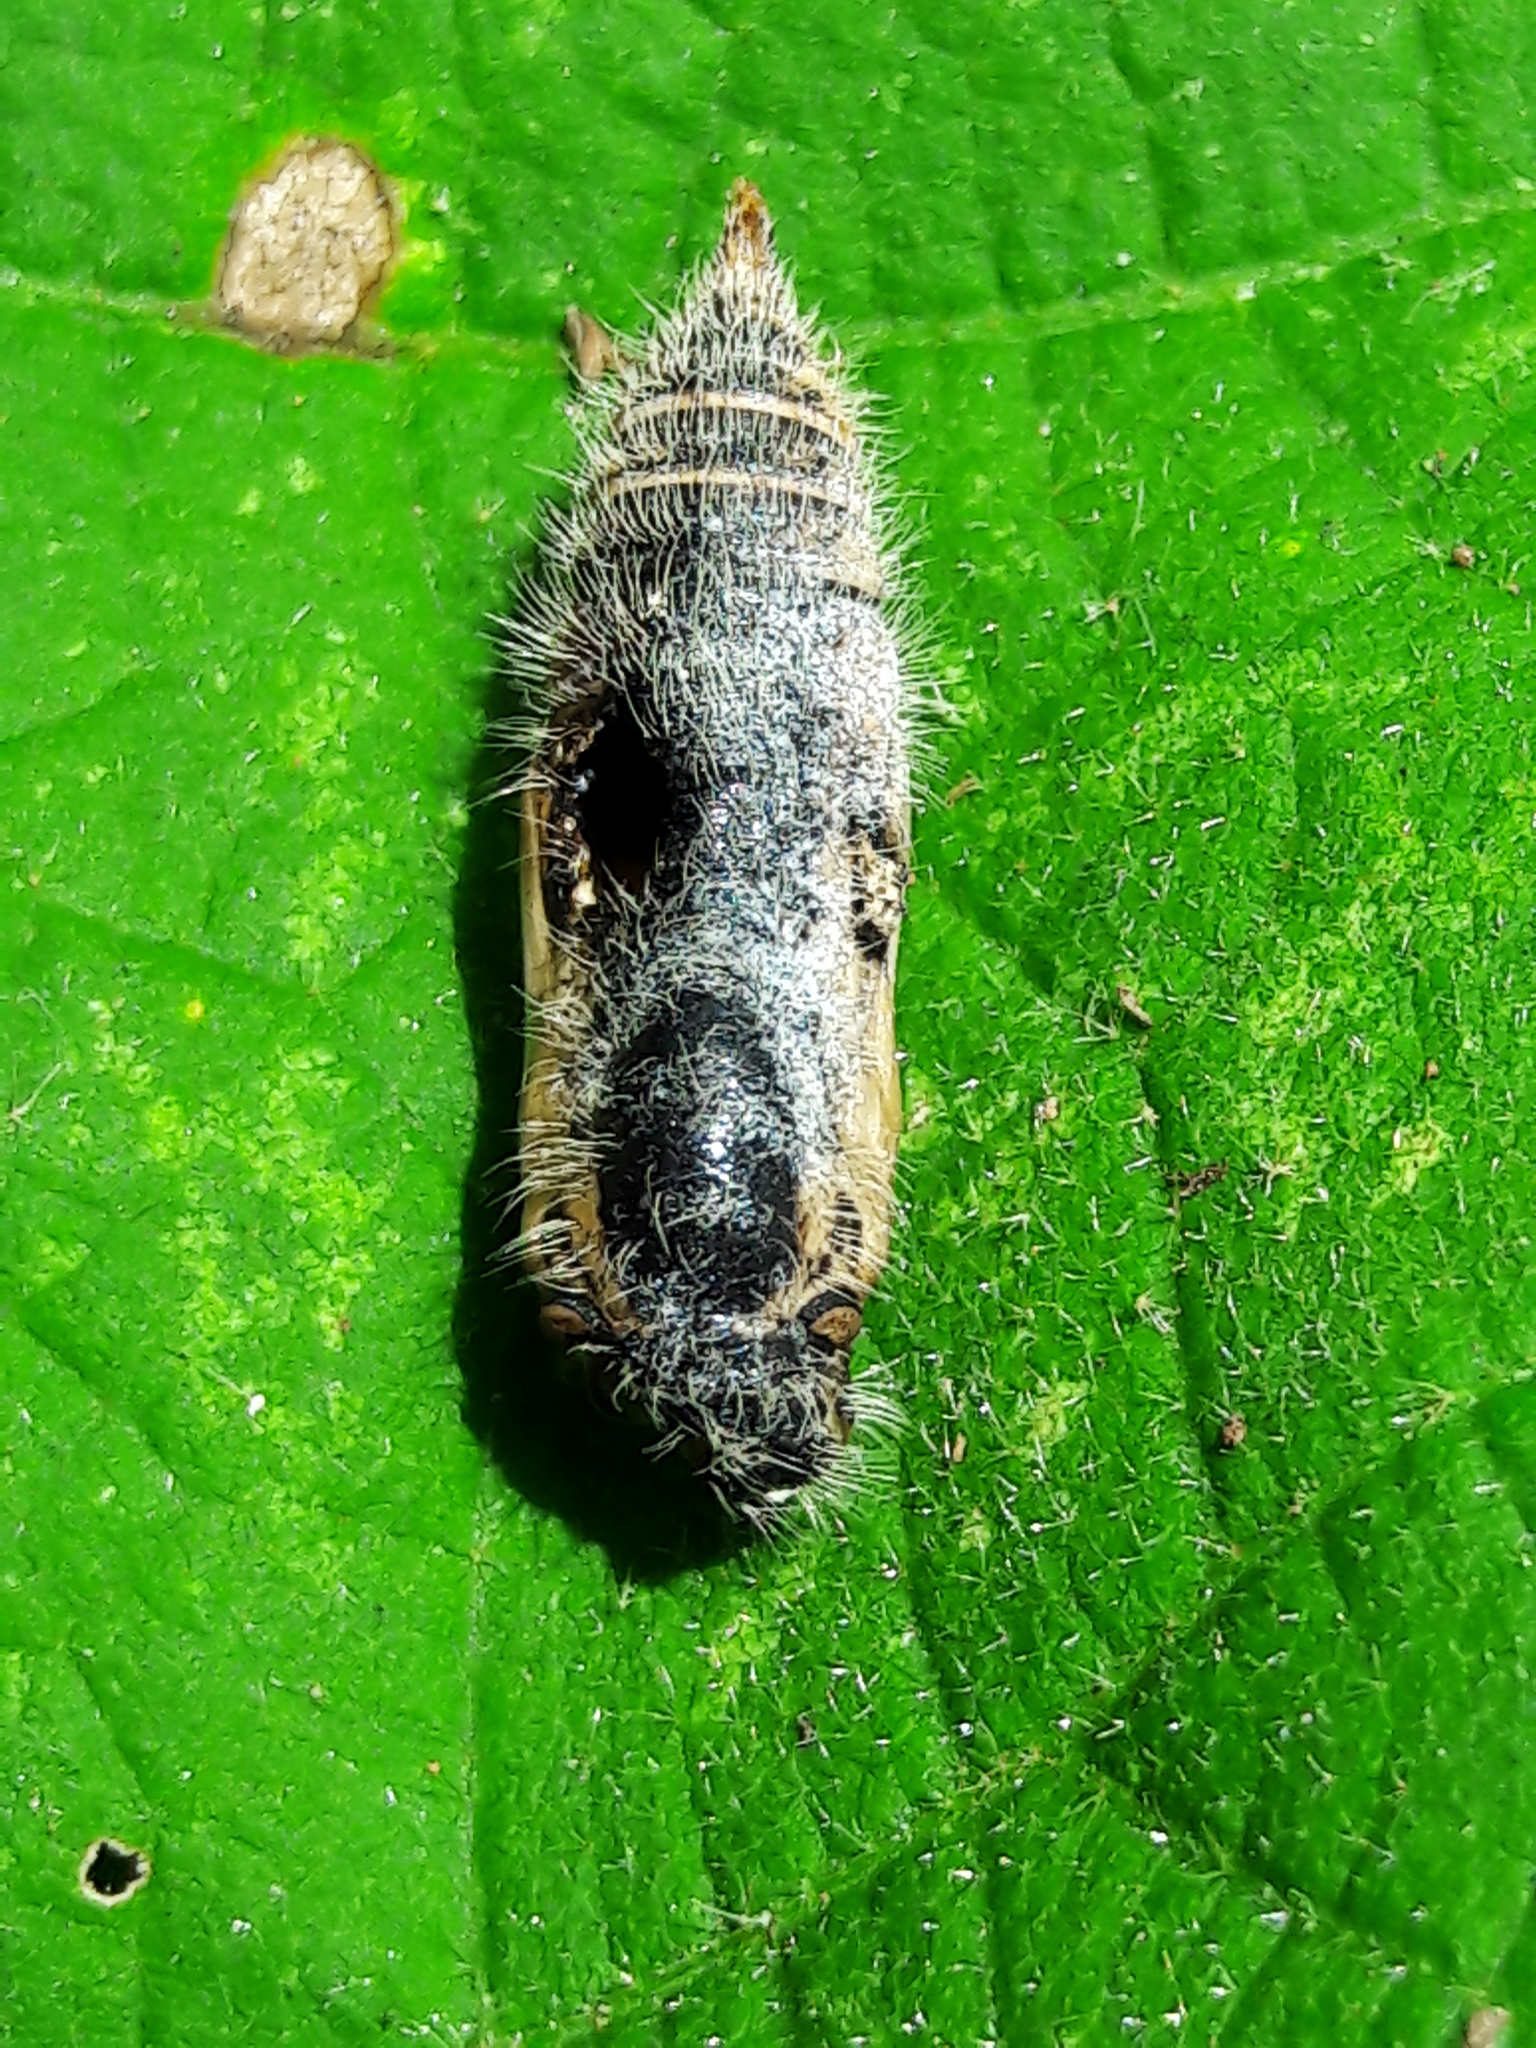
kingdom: Animalia
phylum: Arthropoda
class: Insecta
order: Lepidoptera
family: Hesperiidae
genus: Heliopyrgus
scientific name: Heliopyrgus domicella
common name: Erichson's white skipper
